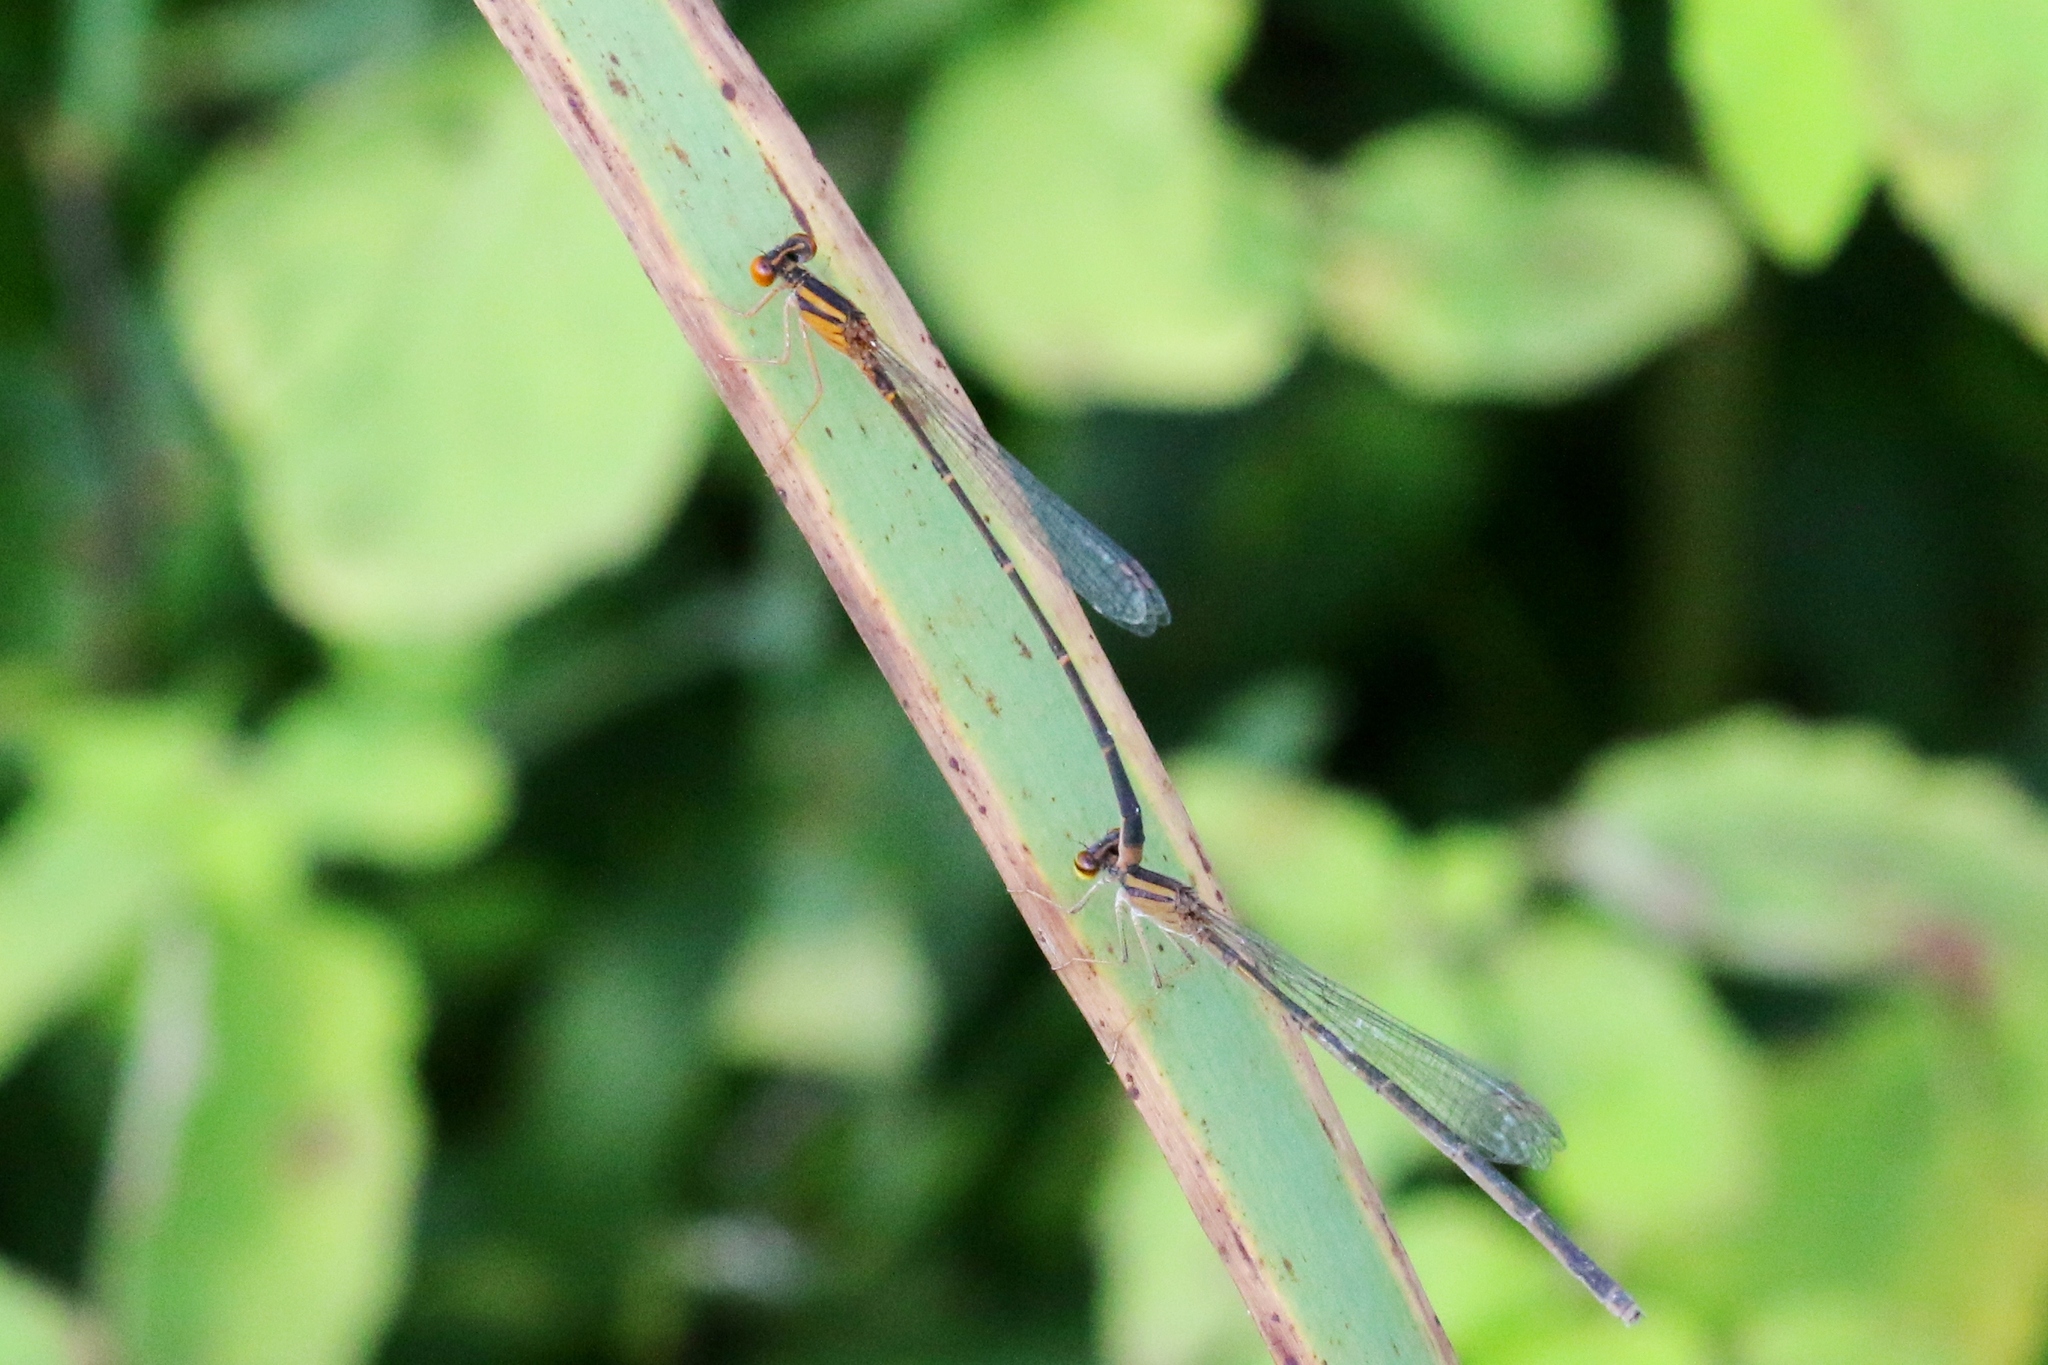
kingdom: Animalia
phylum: Arthropoda
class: Insecta
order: Odonata
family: Coenagrionidae
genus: Enallagma
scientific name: Enallagma signatum
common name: Orange bluet
